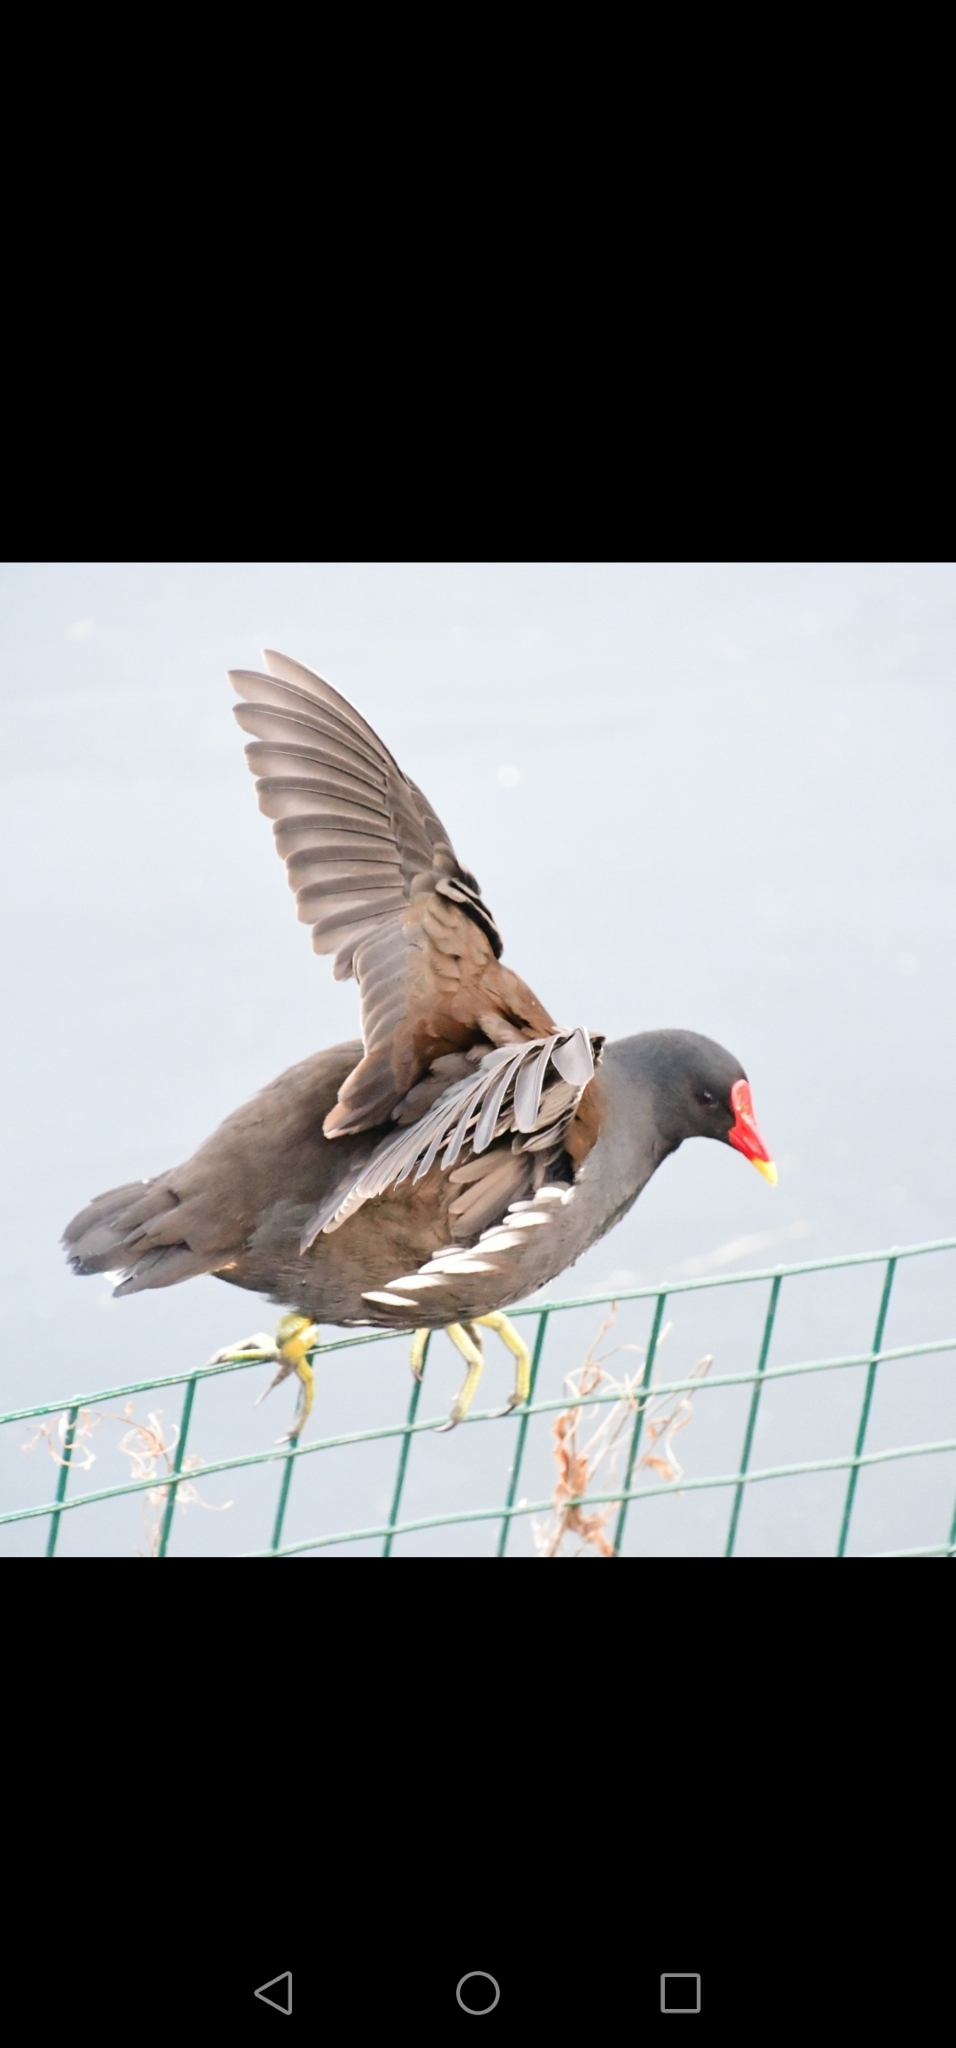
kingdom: Animalia
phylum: Chordata
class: Aves
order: Gruiformes
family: Rallidae
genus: Gallinula
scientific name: Gallinula chloropus
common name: Common moorhen
